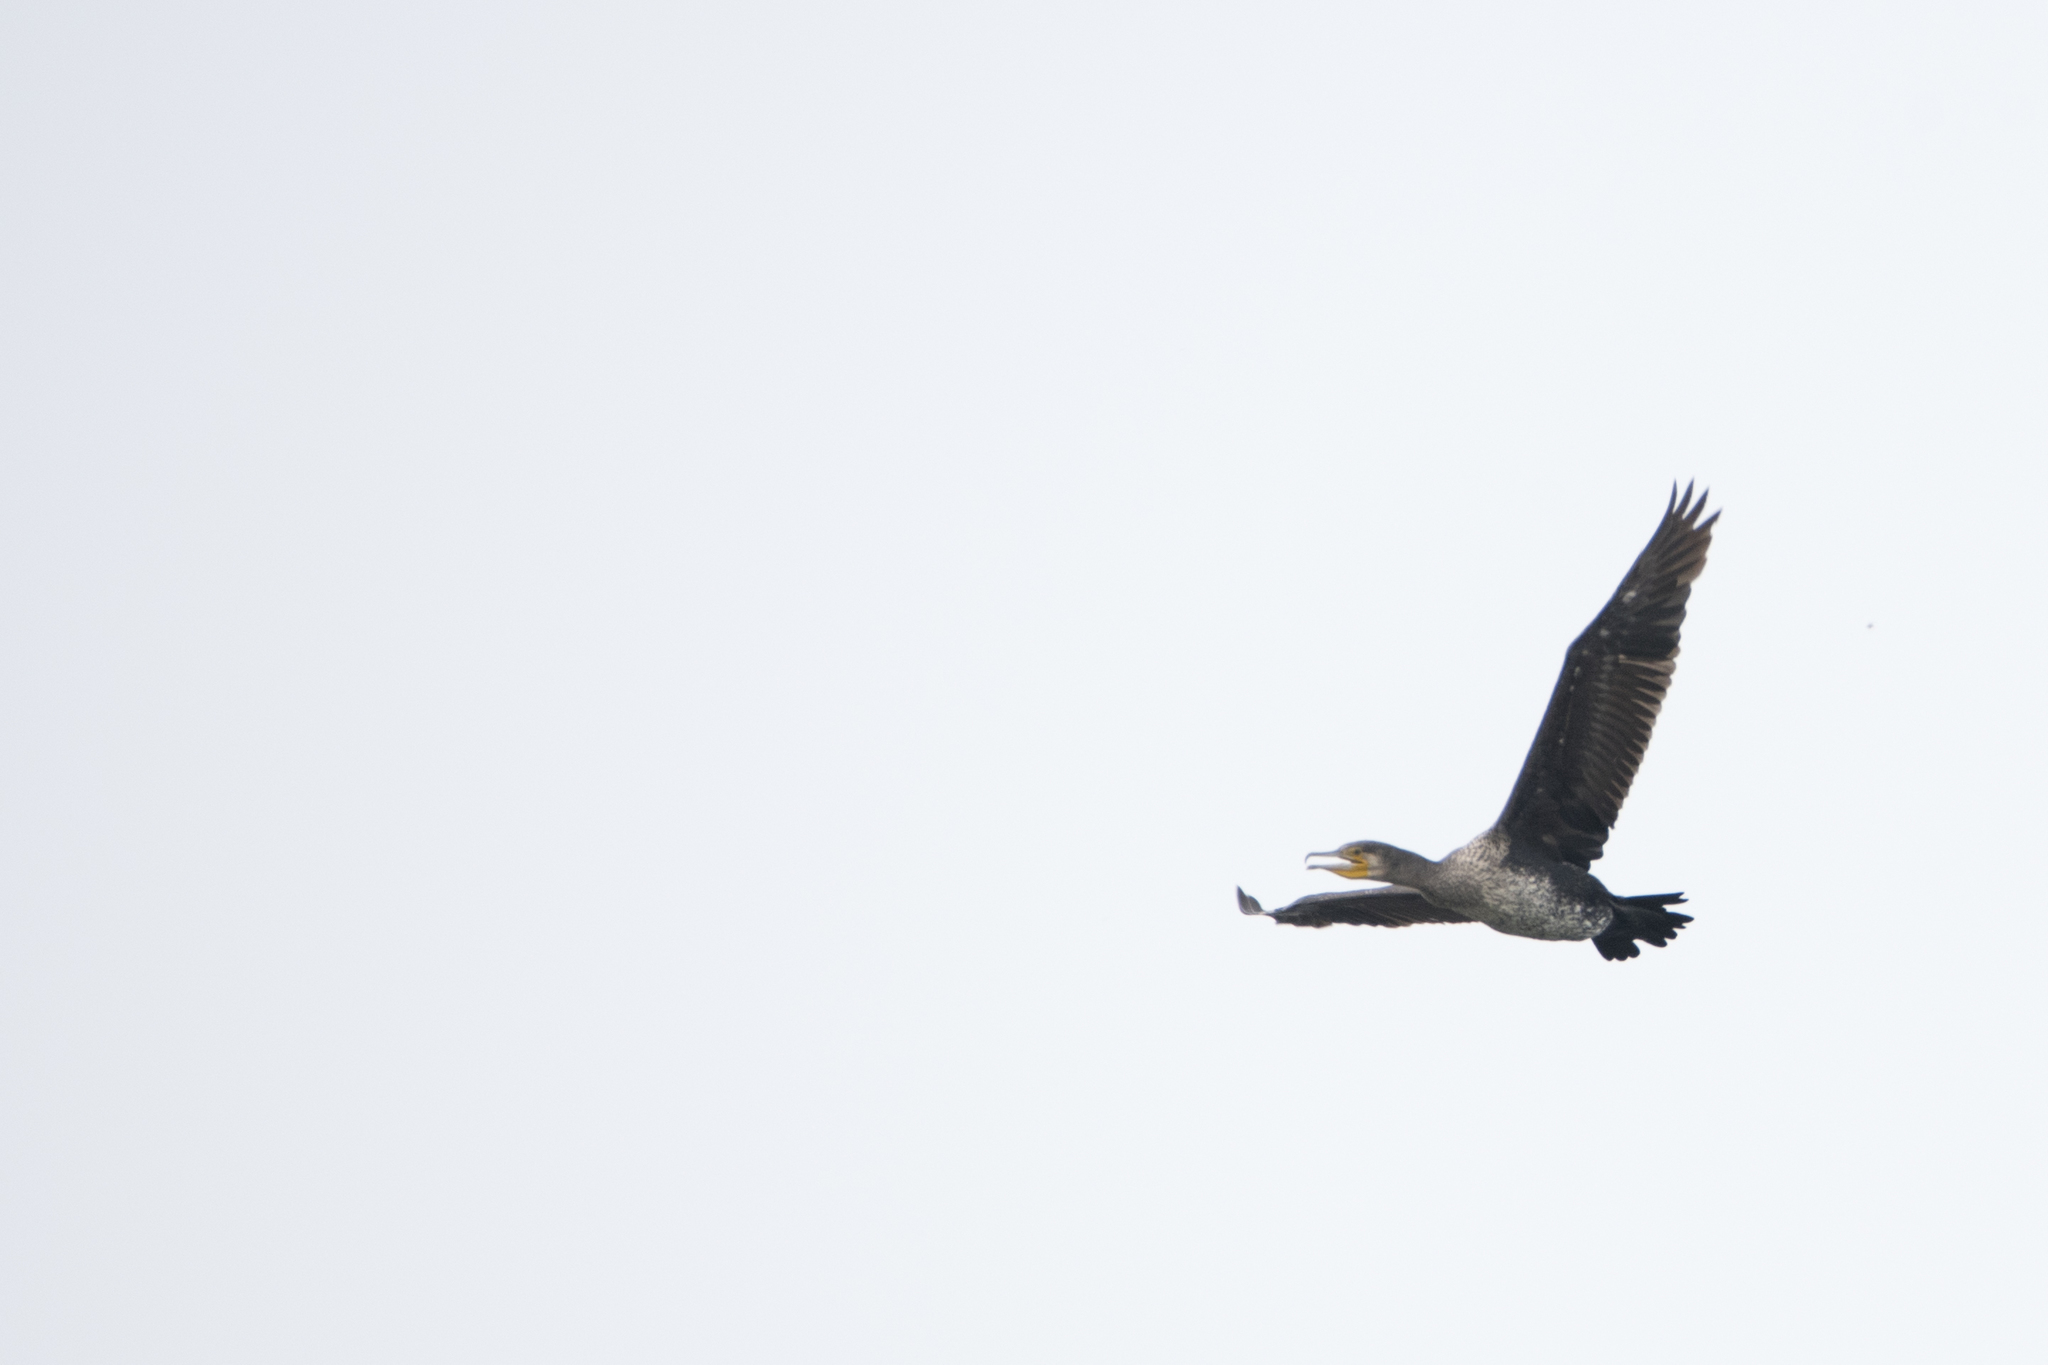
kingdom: Animalia
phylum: Chordata
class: Aves
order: Suliformes
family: Phalacrocoracidae
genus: Phalacrocorax
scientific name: Phalacrocorax carbo
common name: Great cormorant
